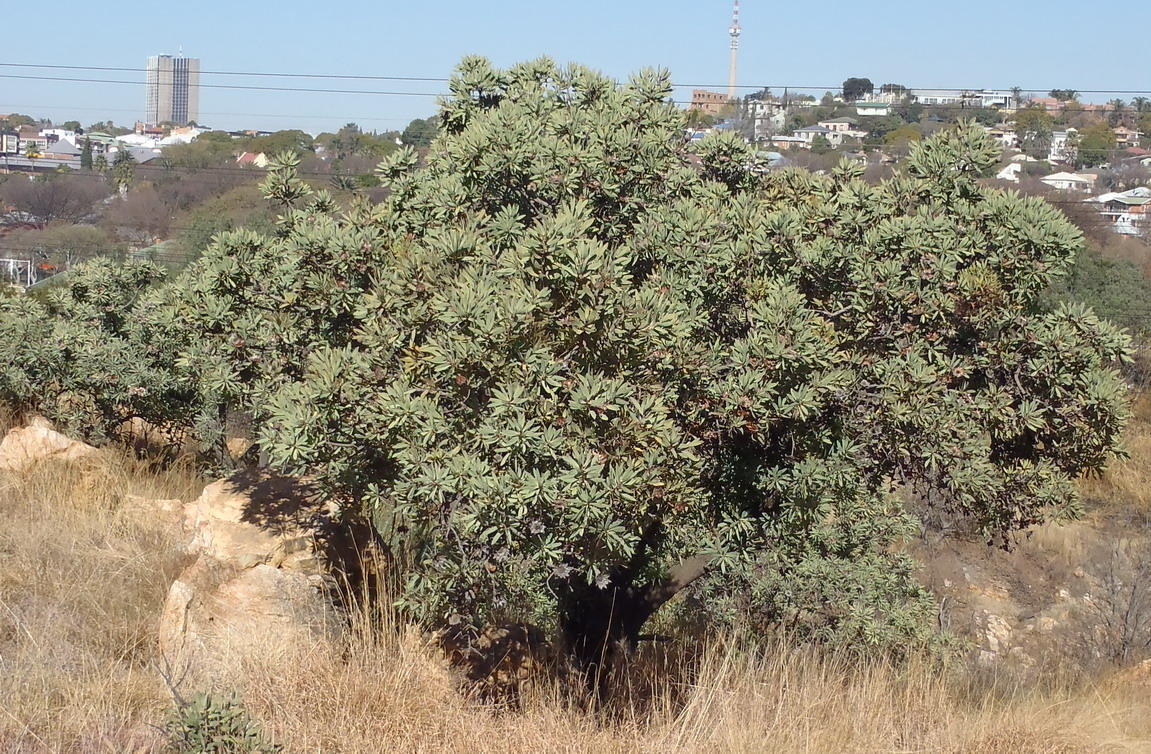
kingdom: Plantae
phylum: Tracheophyta
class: Magnoliopsida
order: Proteales
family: Proteaceae
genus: Protea
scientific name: Protea caffra
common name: Common sugarbush
